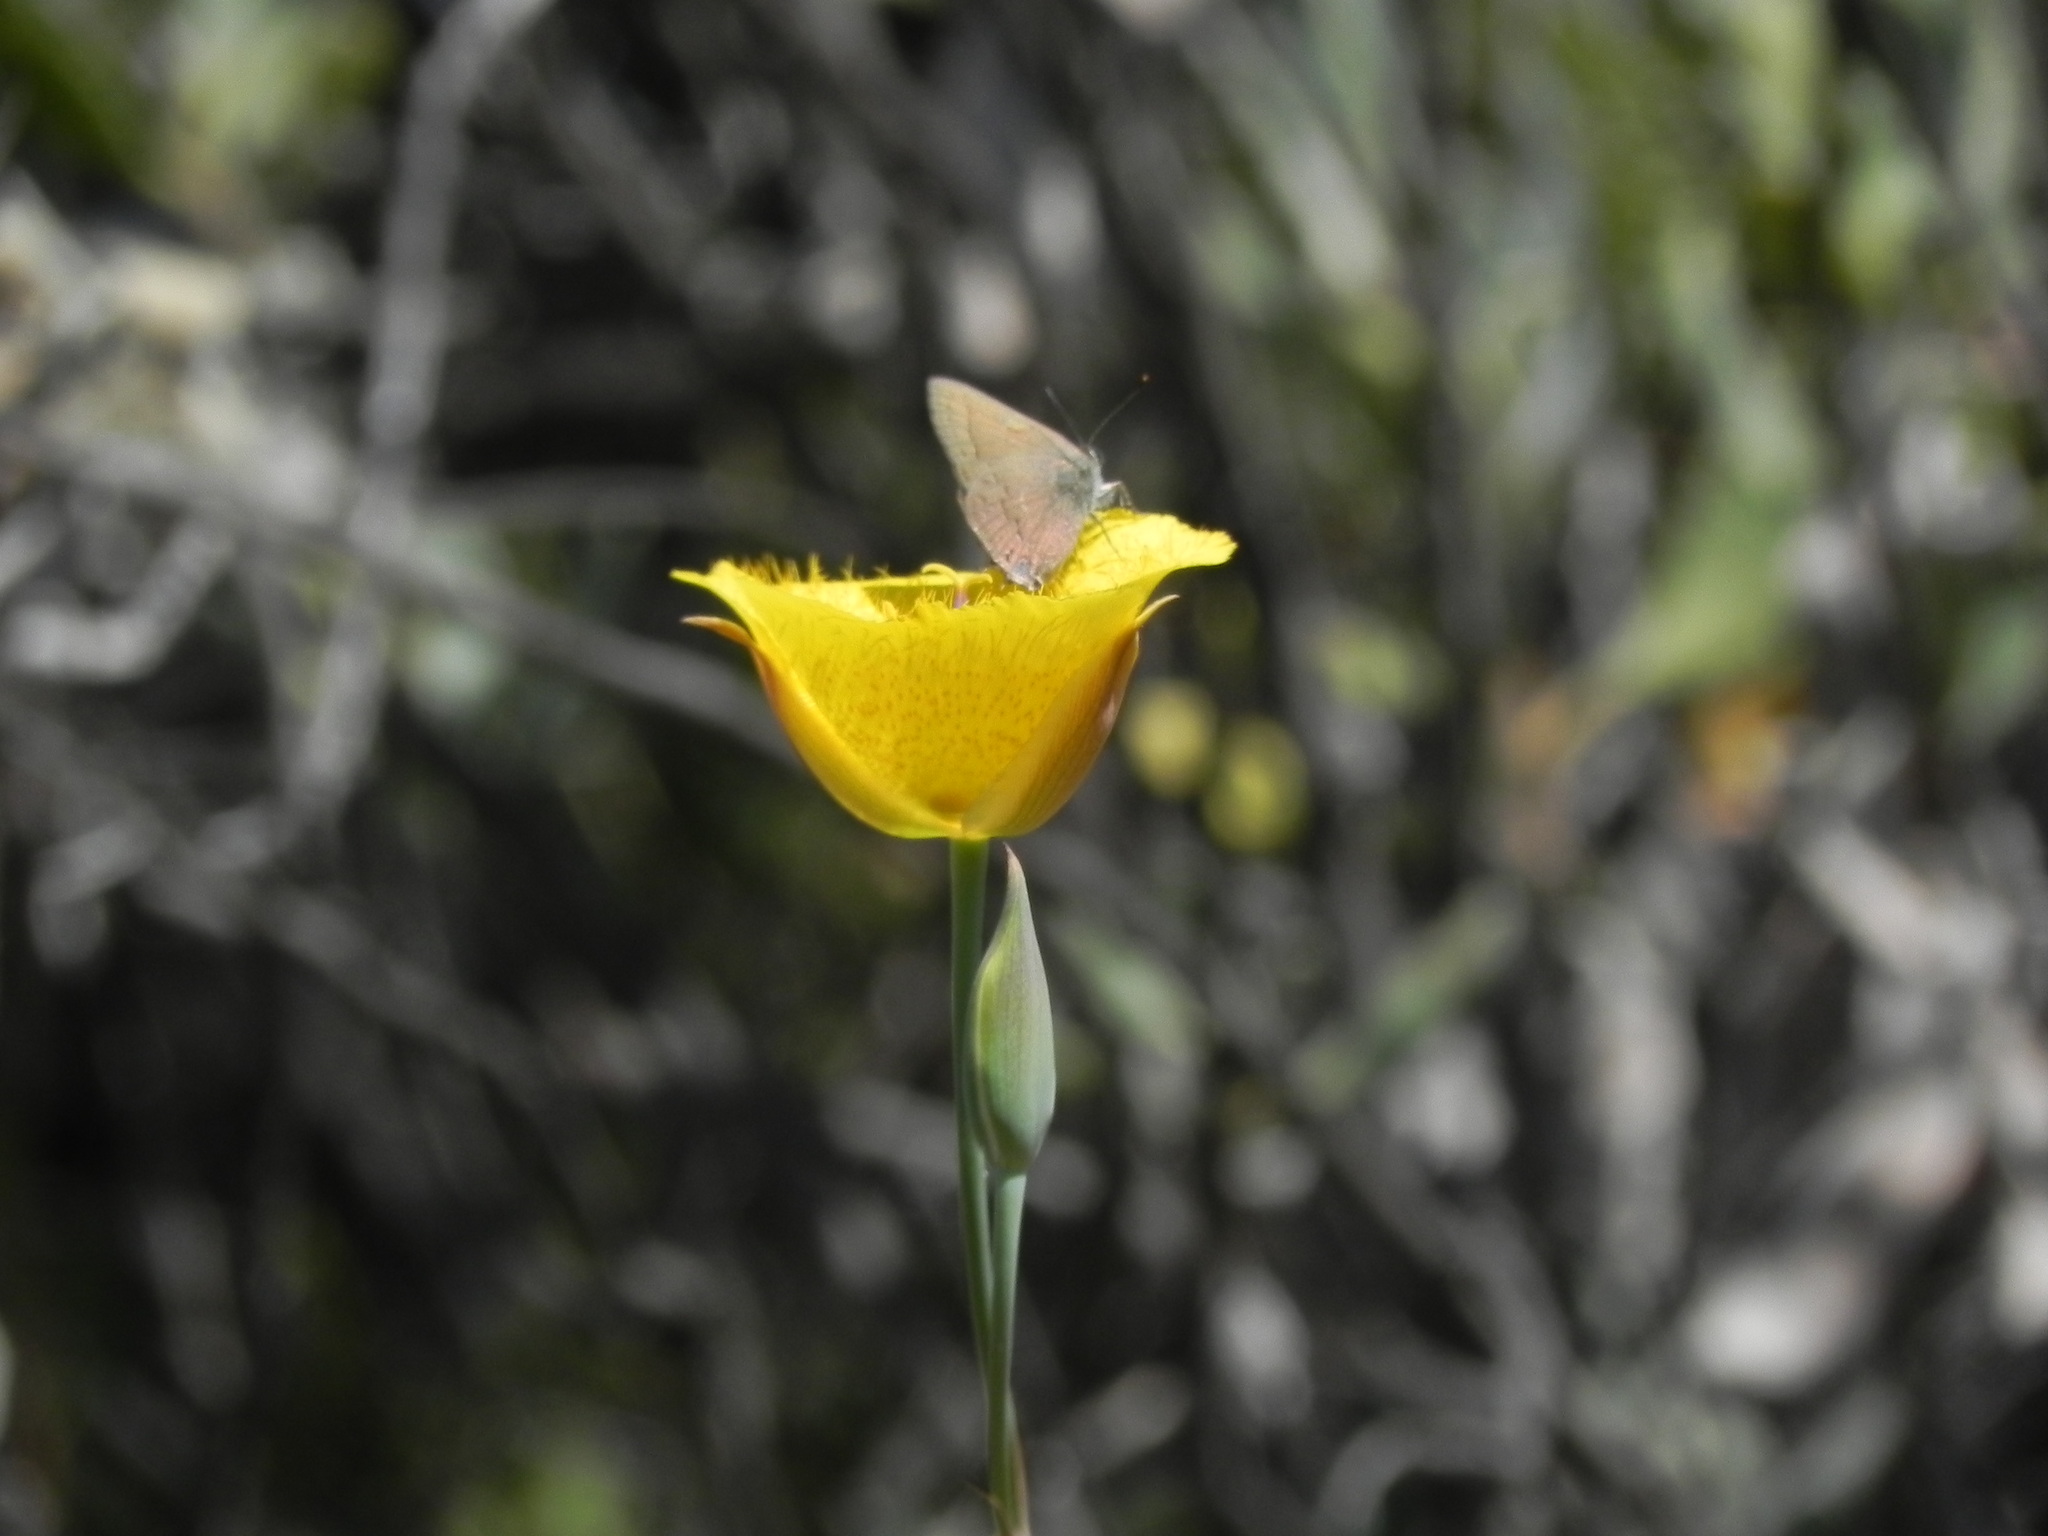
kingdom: Plantae
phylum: Tracheophyta
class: Liliopsida
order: Liliales
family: Liliaceae
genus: Calochortus
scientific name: Calochortus weedii
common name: Weed's mariposa-lily
